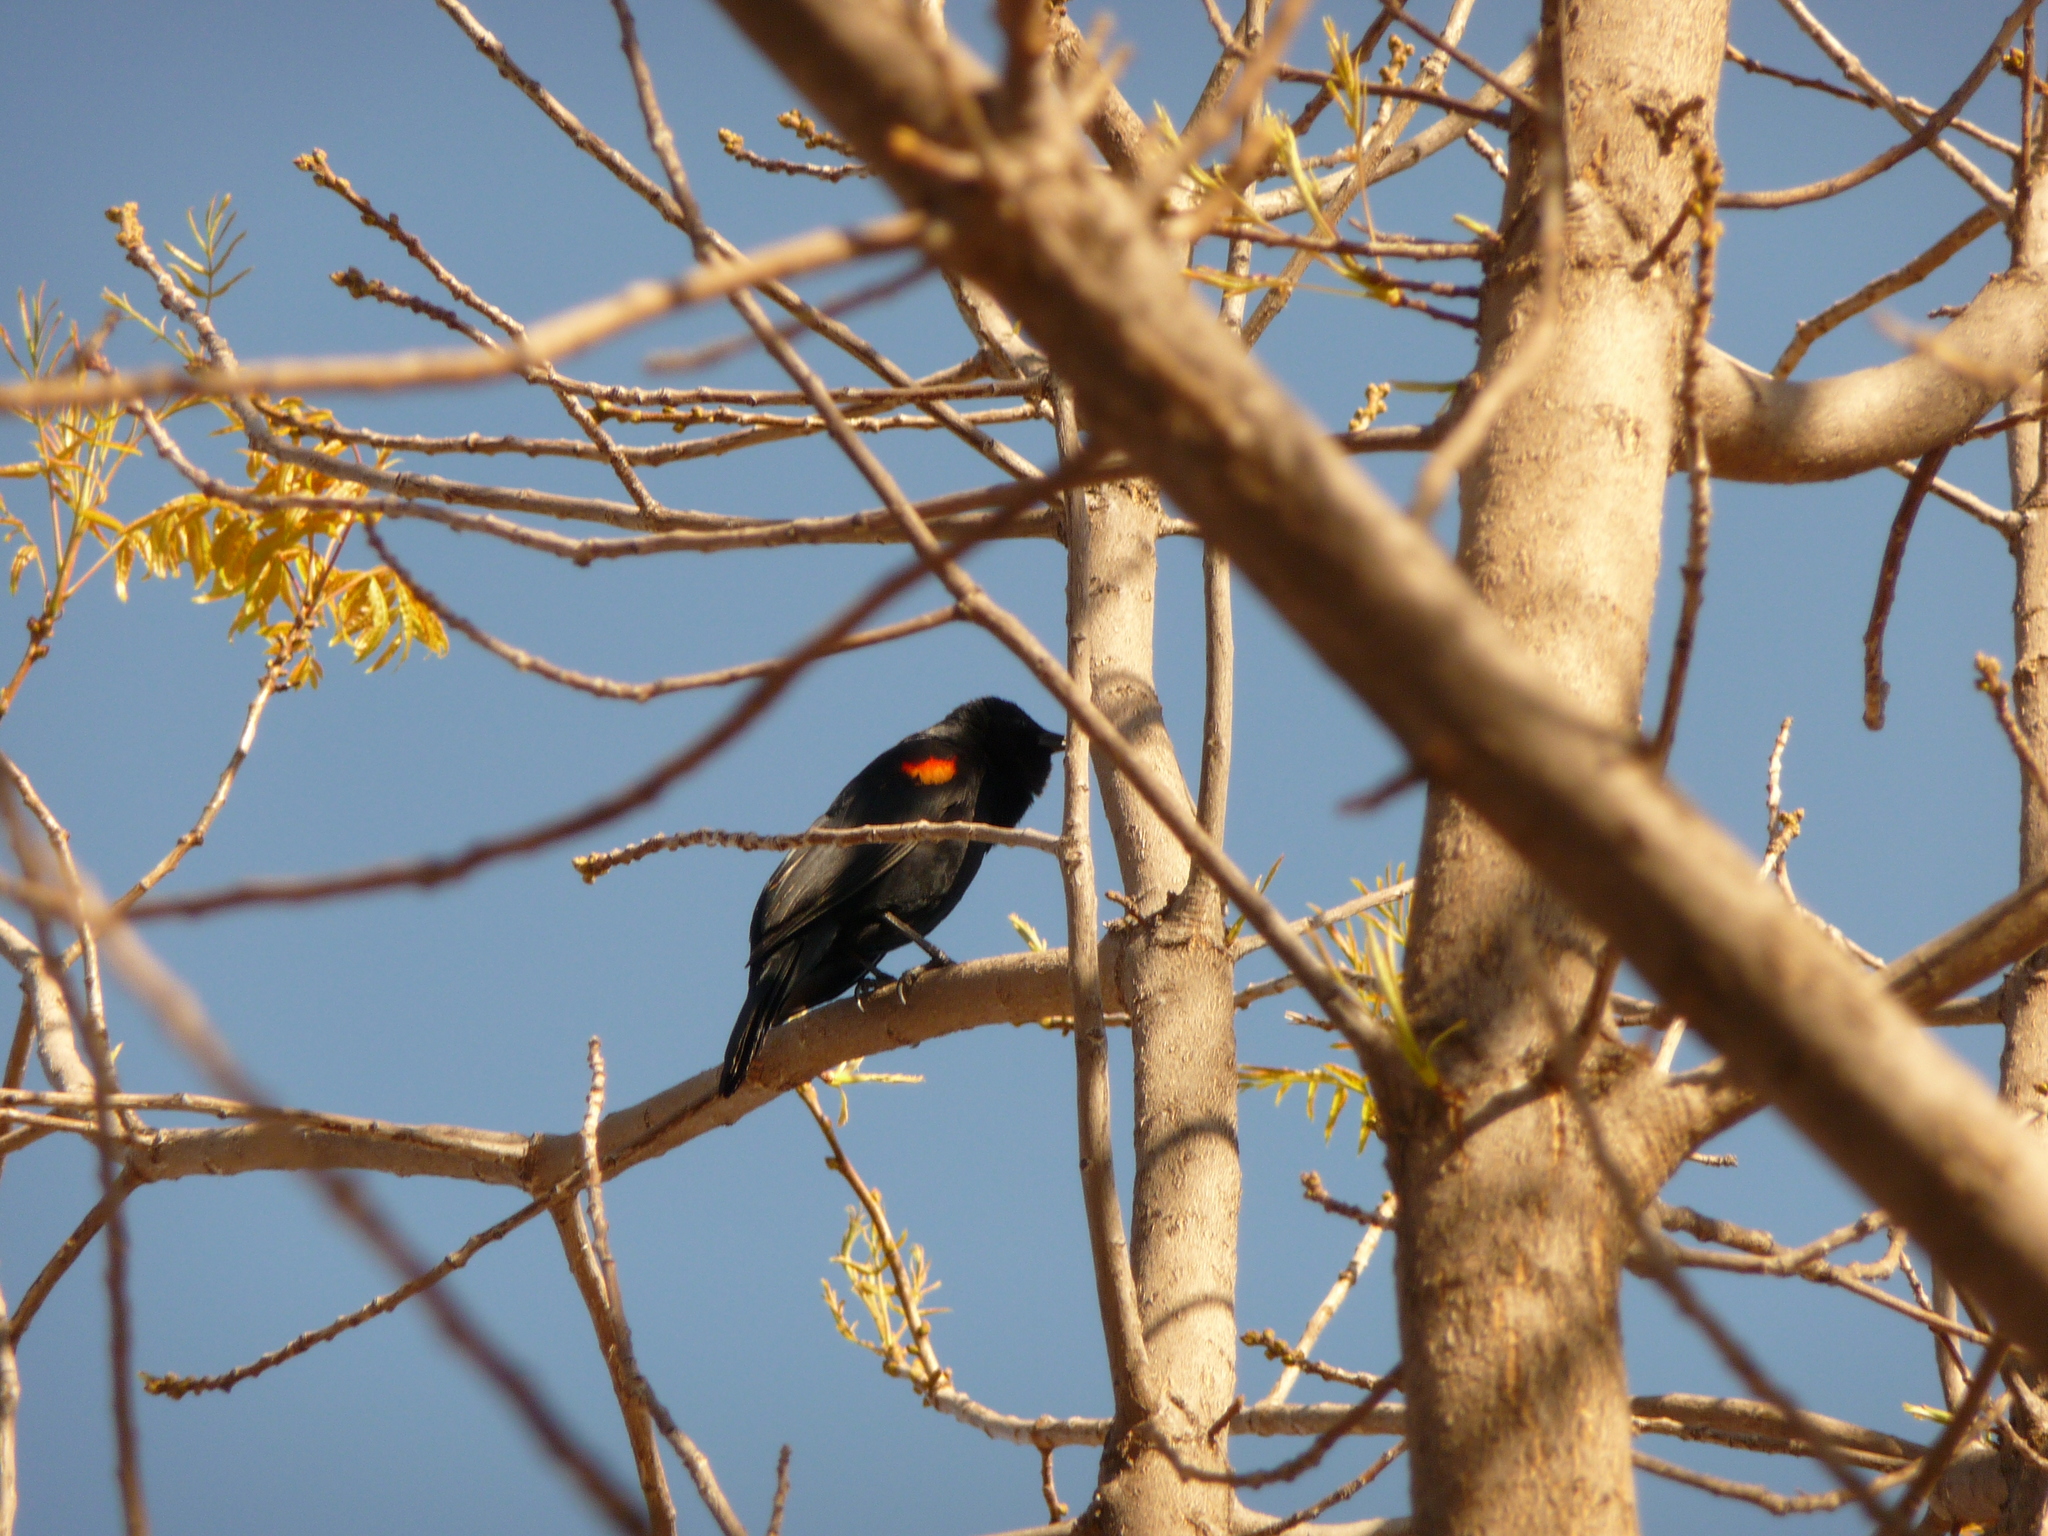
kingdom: Animalia
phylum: Chordata
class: Aves
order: Passeriformes
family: Icteridae
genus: Agelaius
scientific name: Agelaius phoeniceus
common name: Red-winged blackbird
